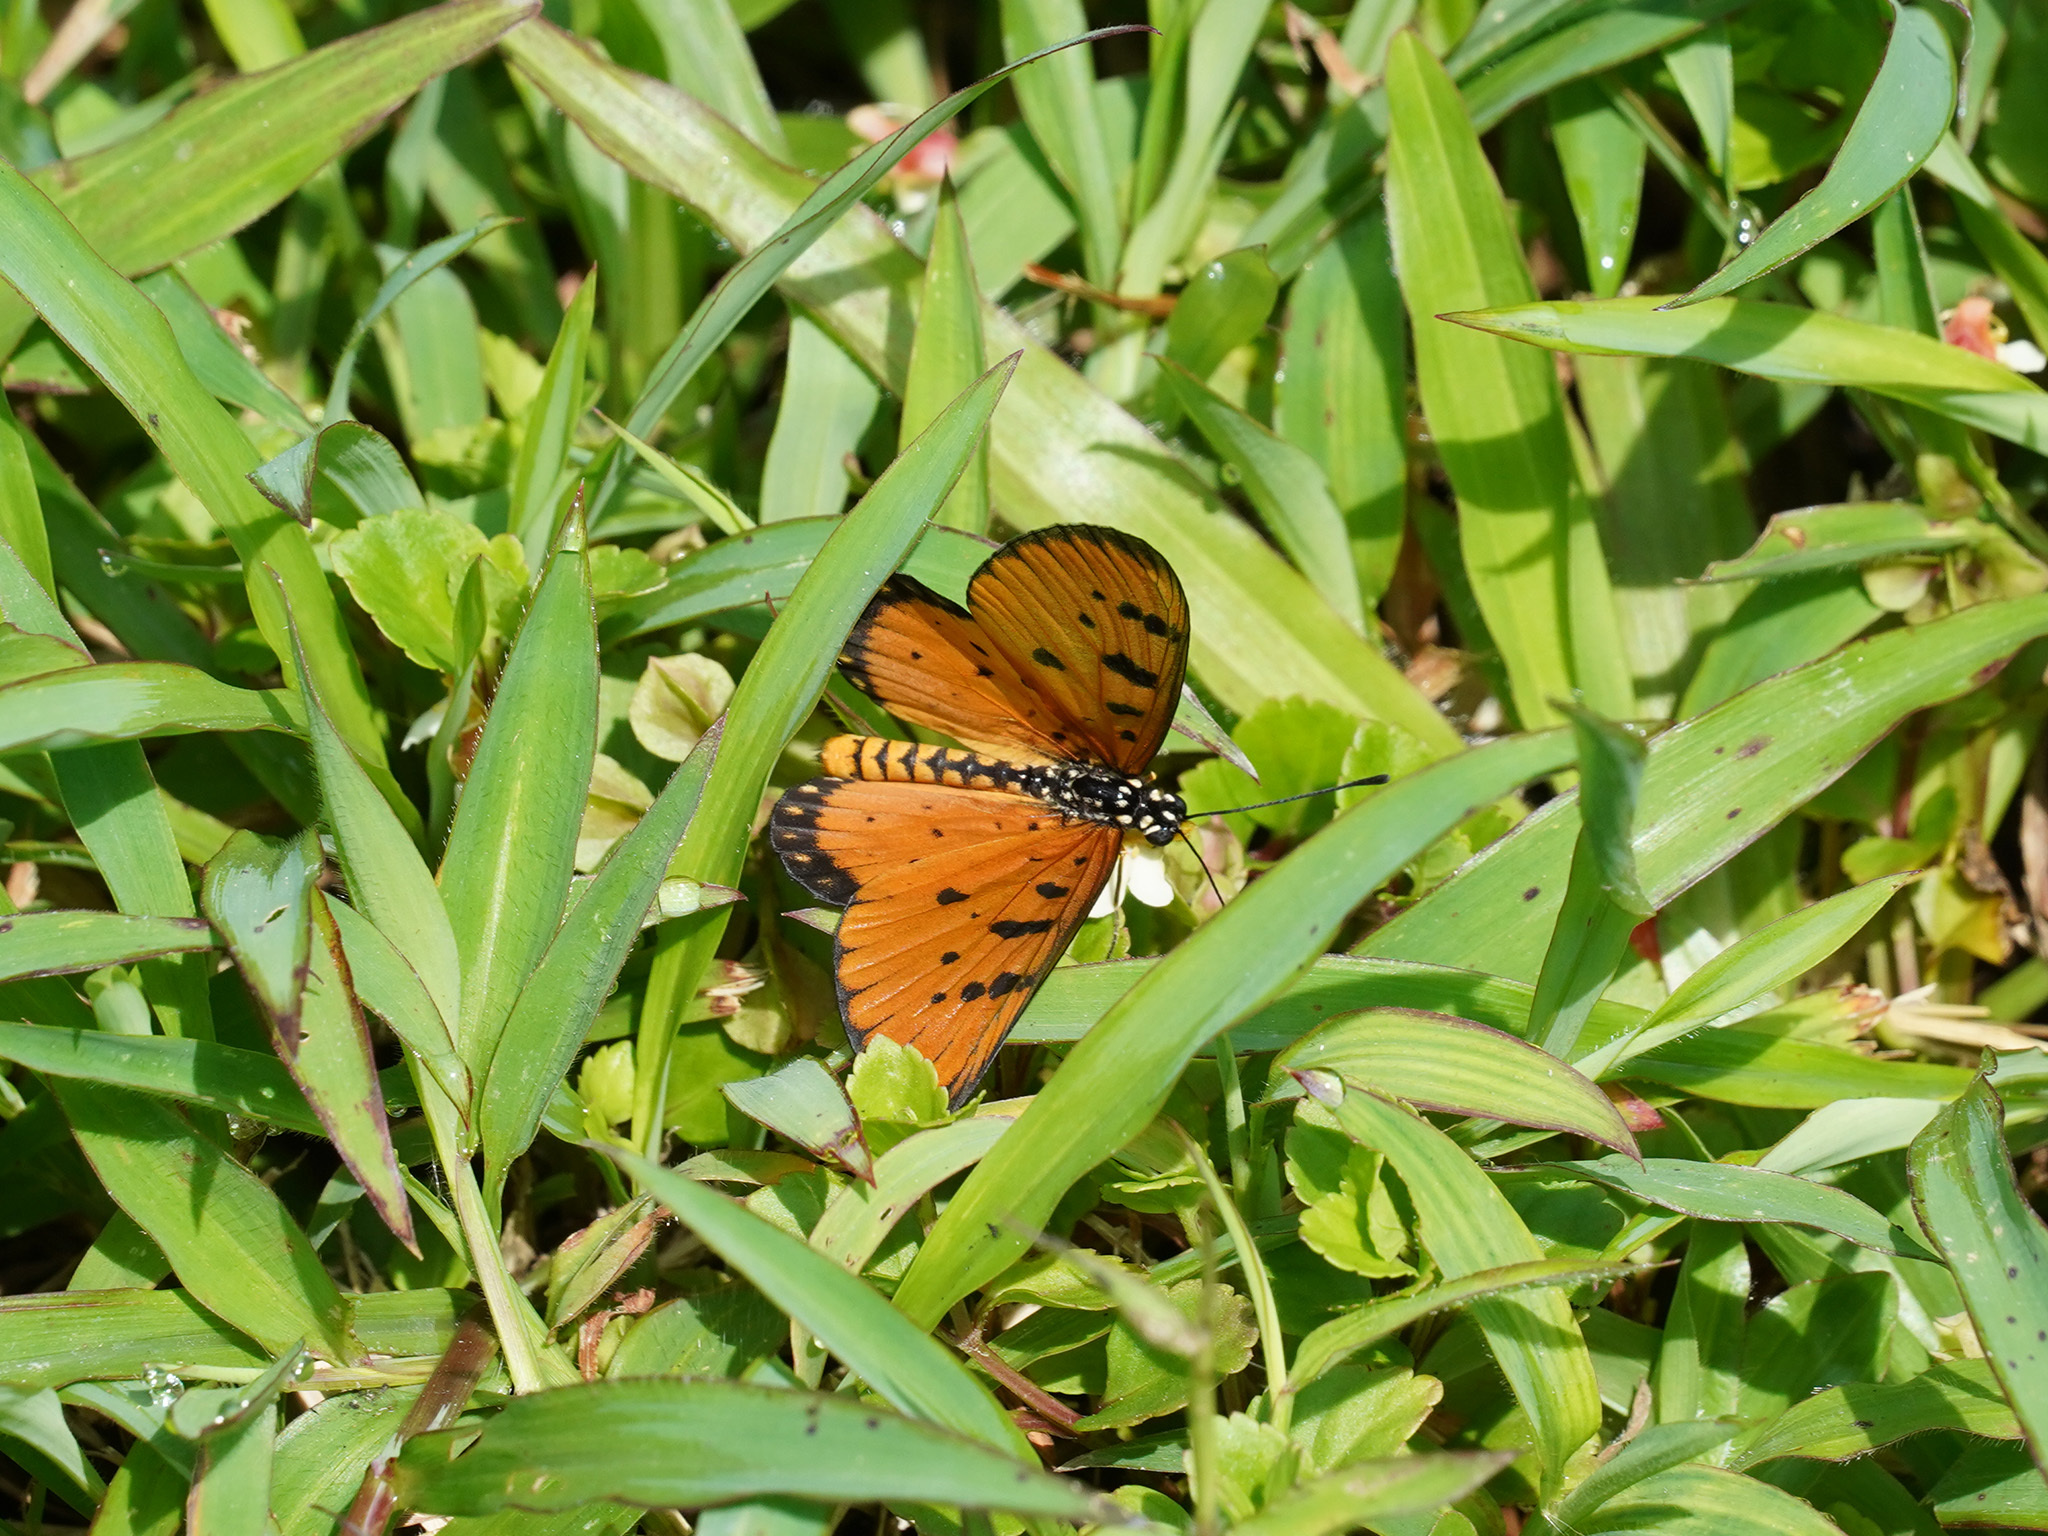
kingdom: Animalia
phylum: Arthropoda
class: Insecta
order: Lepidoptera
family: Nymphalidae
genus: Acraea
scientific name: Acraea terpsicore
